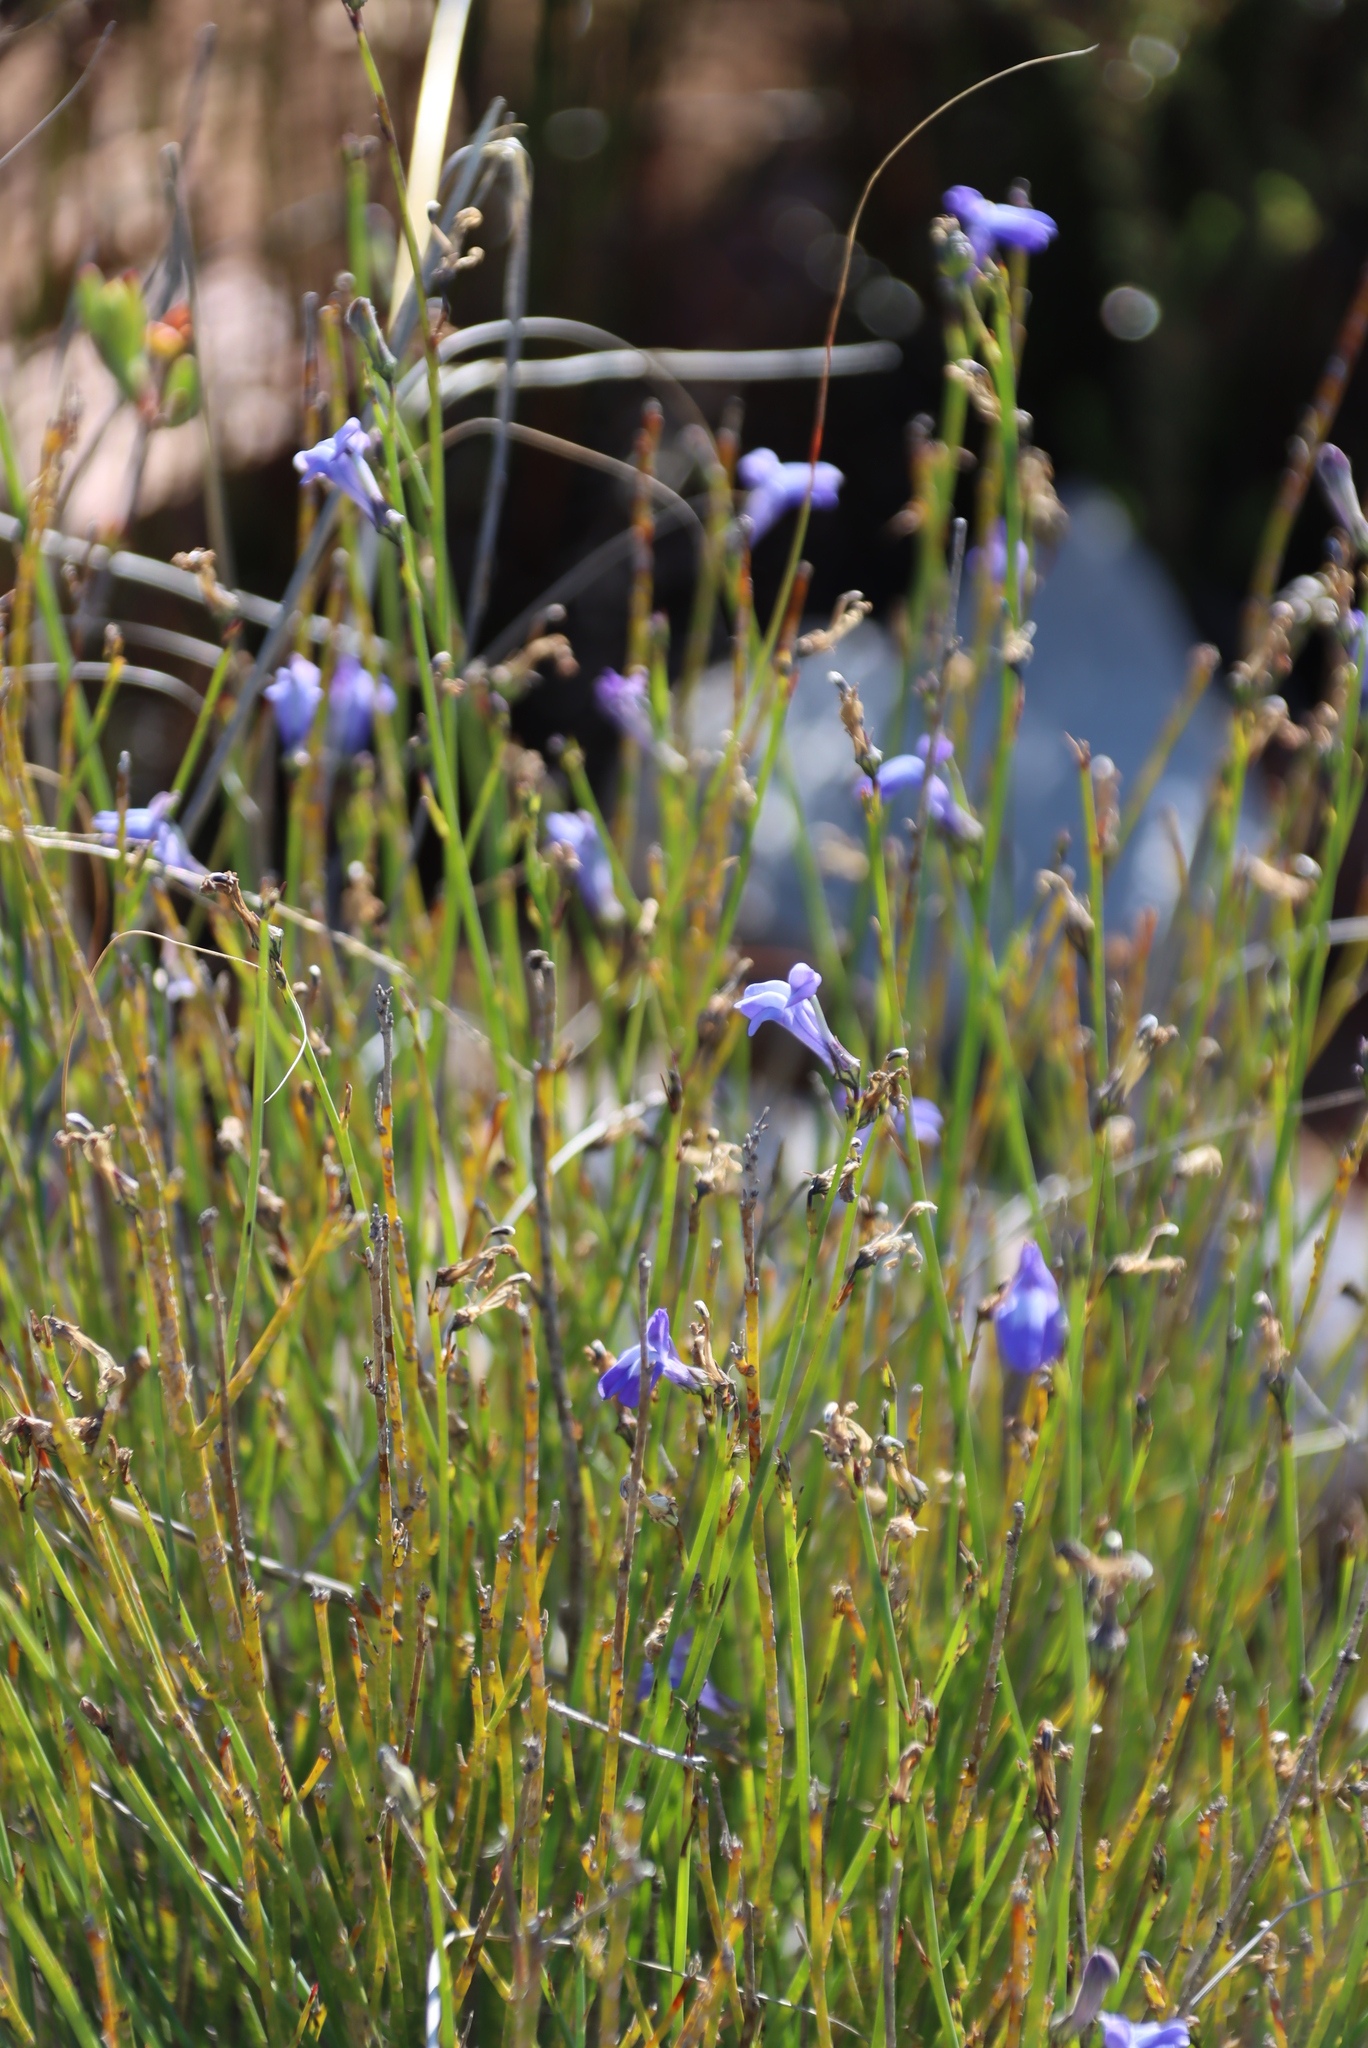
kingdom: Plantae
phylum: Tracheophyta
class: Magnoliopsida
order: Asterales
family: Campanulaceae
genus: Lobelia
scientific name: Lobelia linearis
